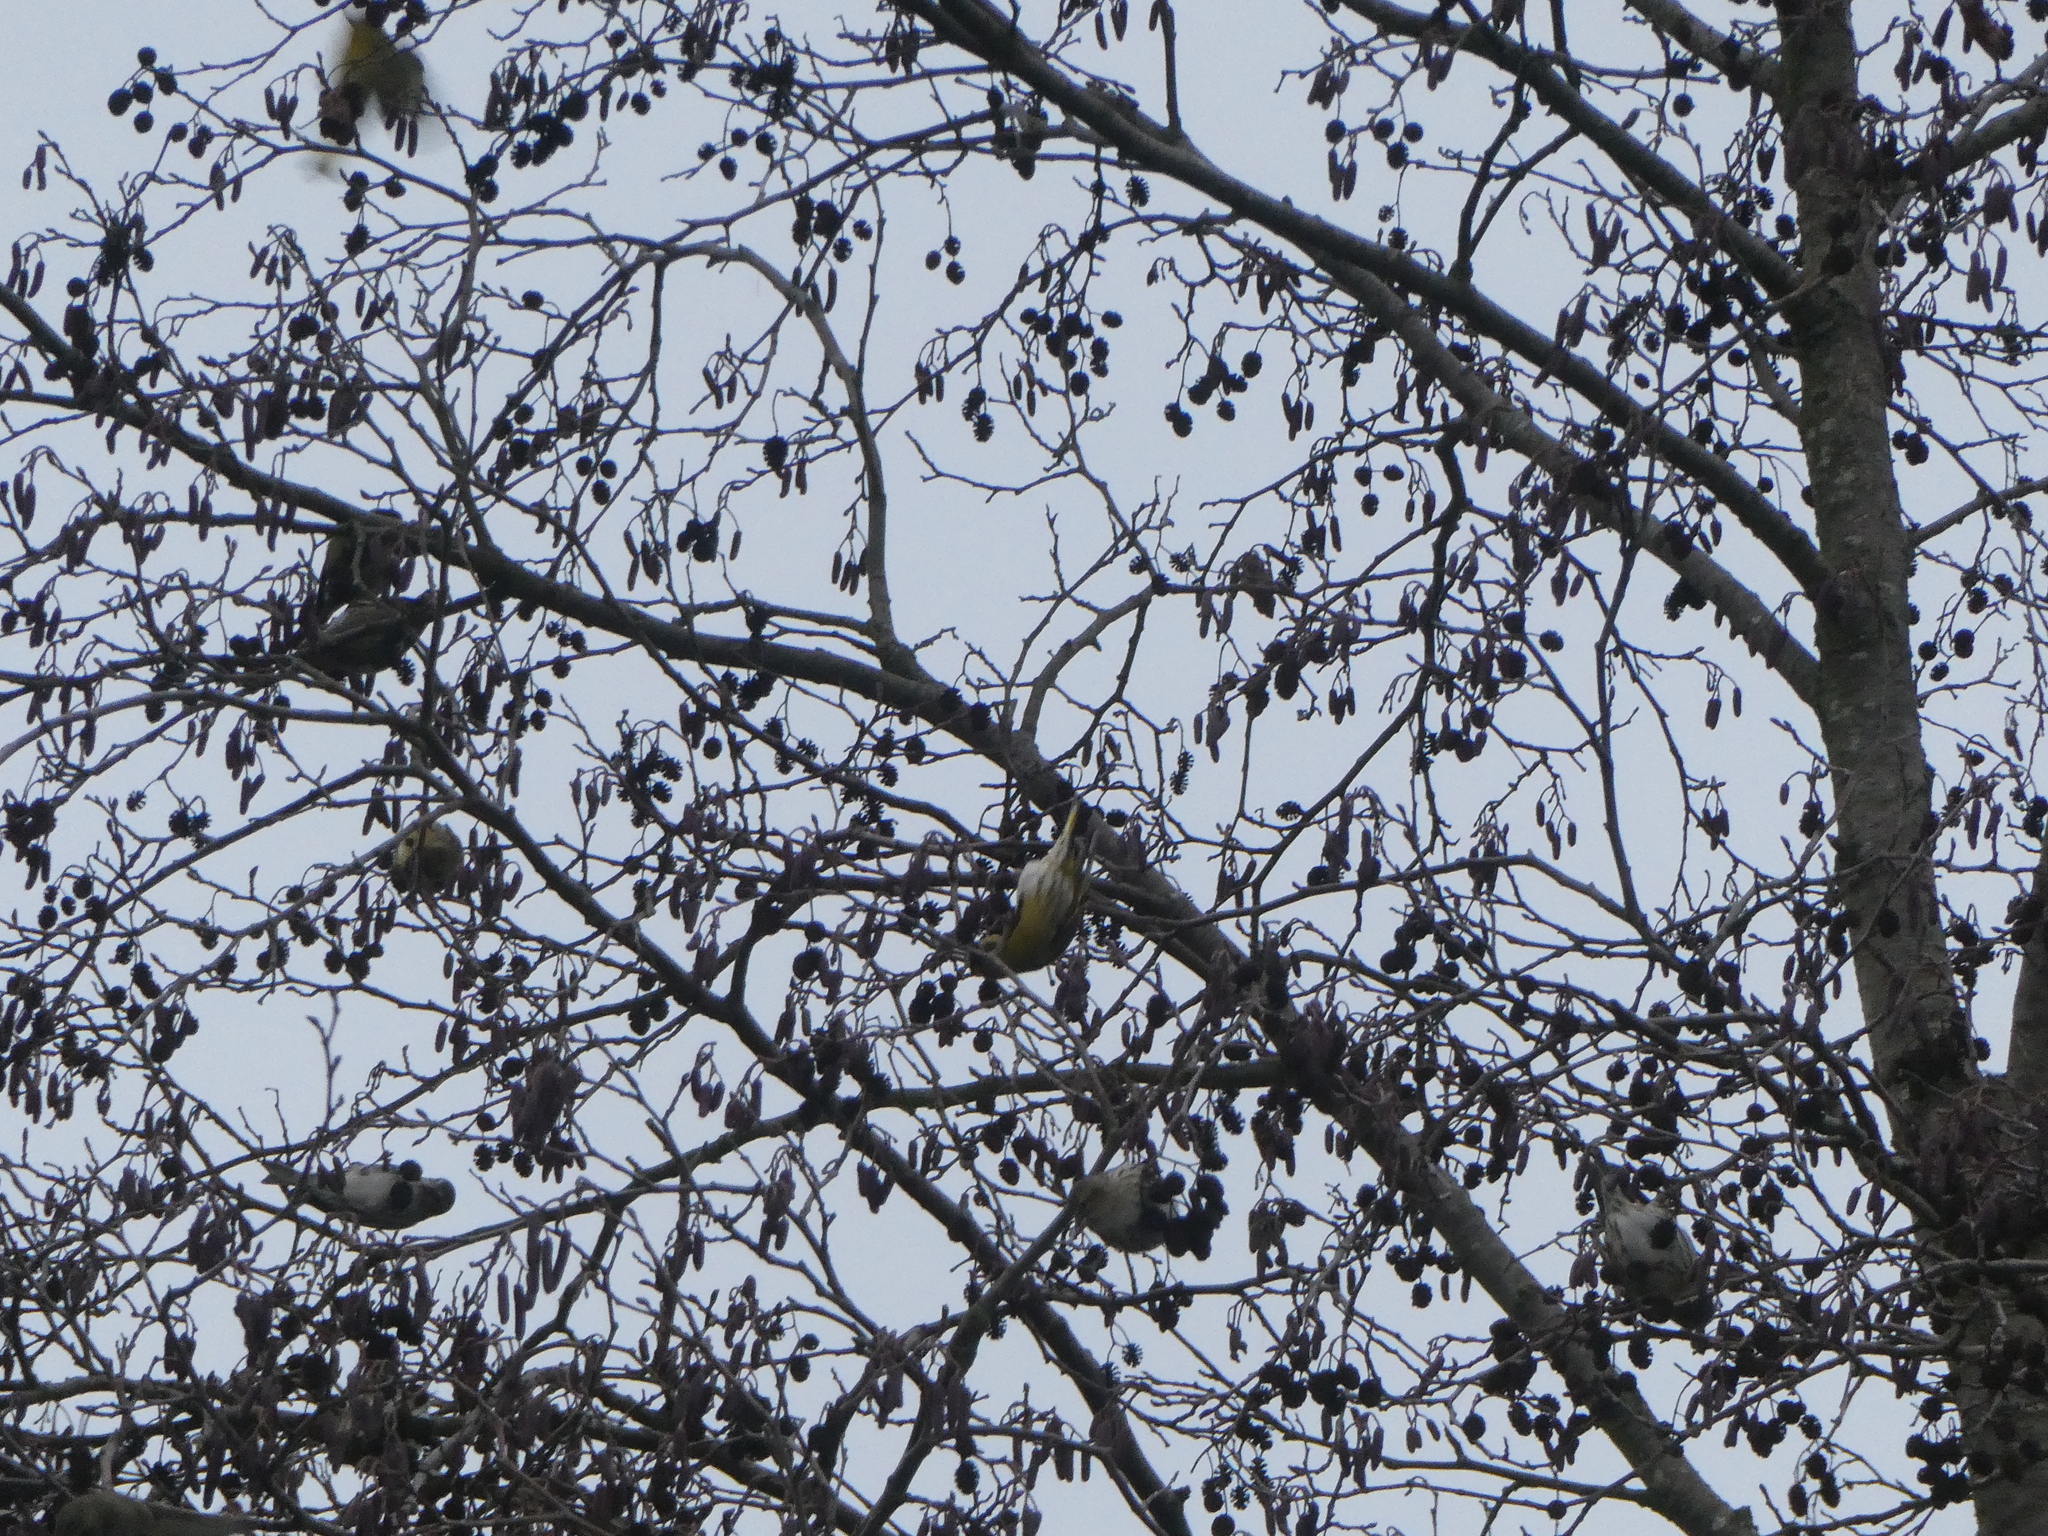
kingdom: Animalia
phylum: Chordata
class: Aves
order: Passeriformes
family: Fringillidae
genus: Spinus
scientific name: Spinus spinus
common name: Eurasian siskin
